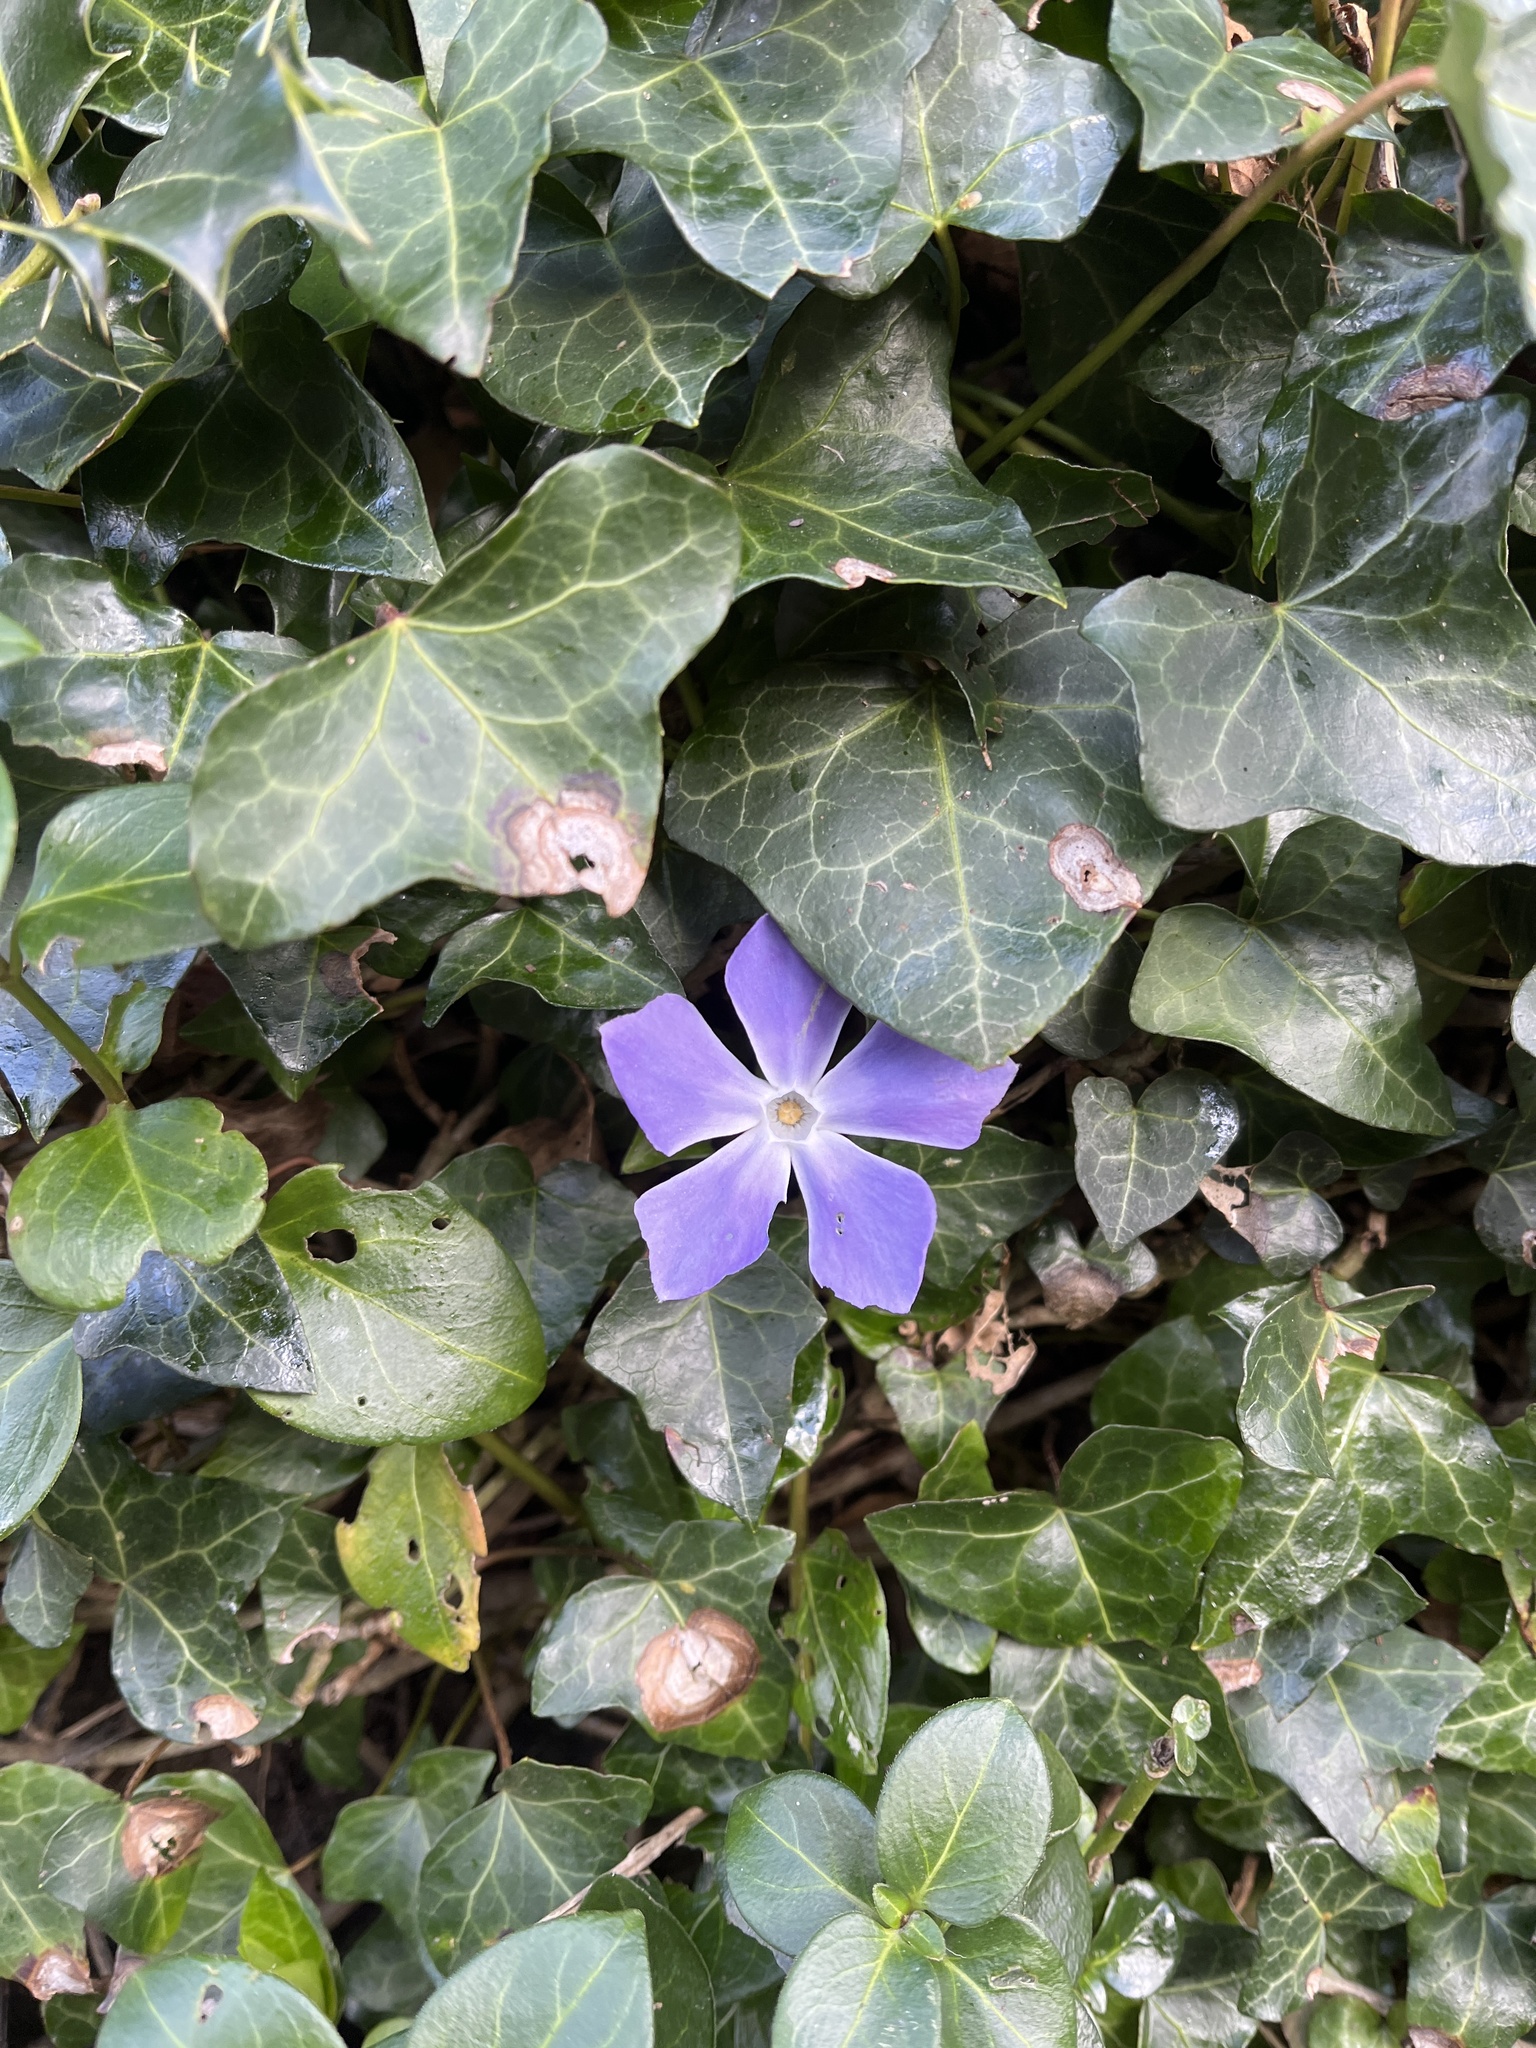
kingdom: Plantae
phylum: Tracheophyta
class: Magnoliopsida
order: Gentianales
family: Apocynaceae
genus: Vinca
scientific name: Vinca major
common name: Greater periwinkle
